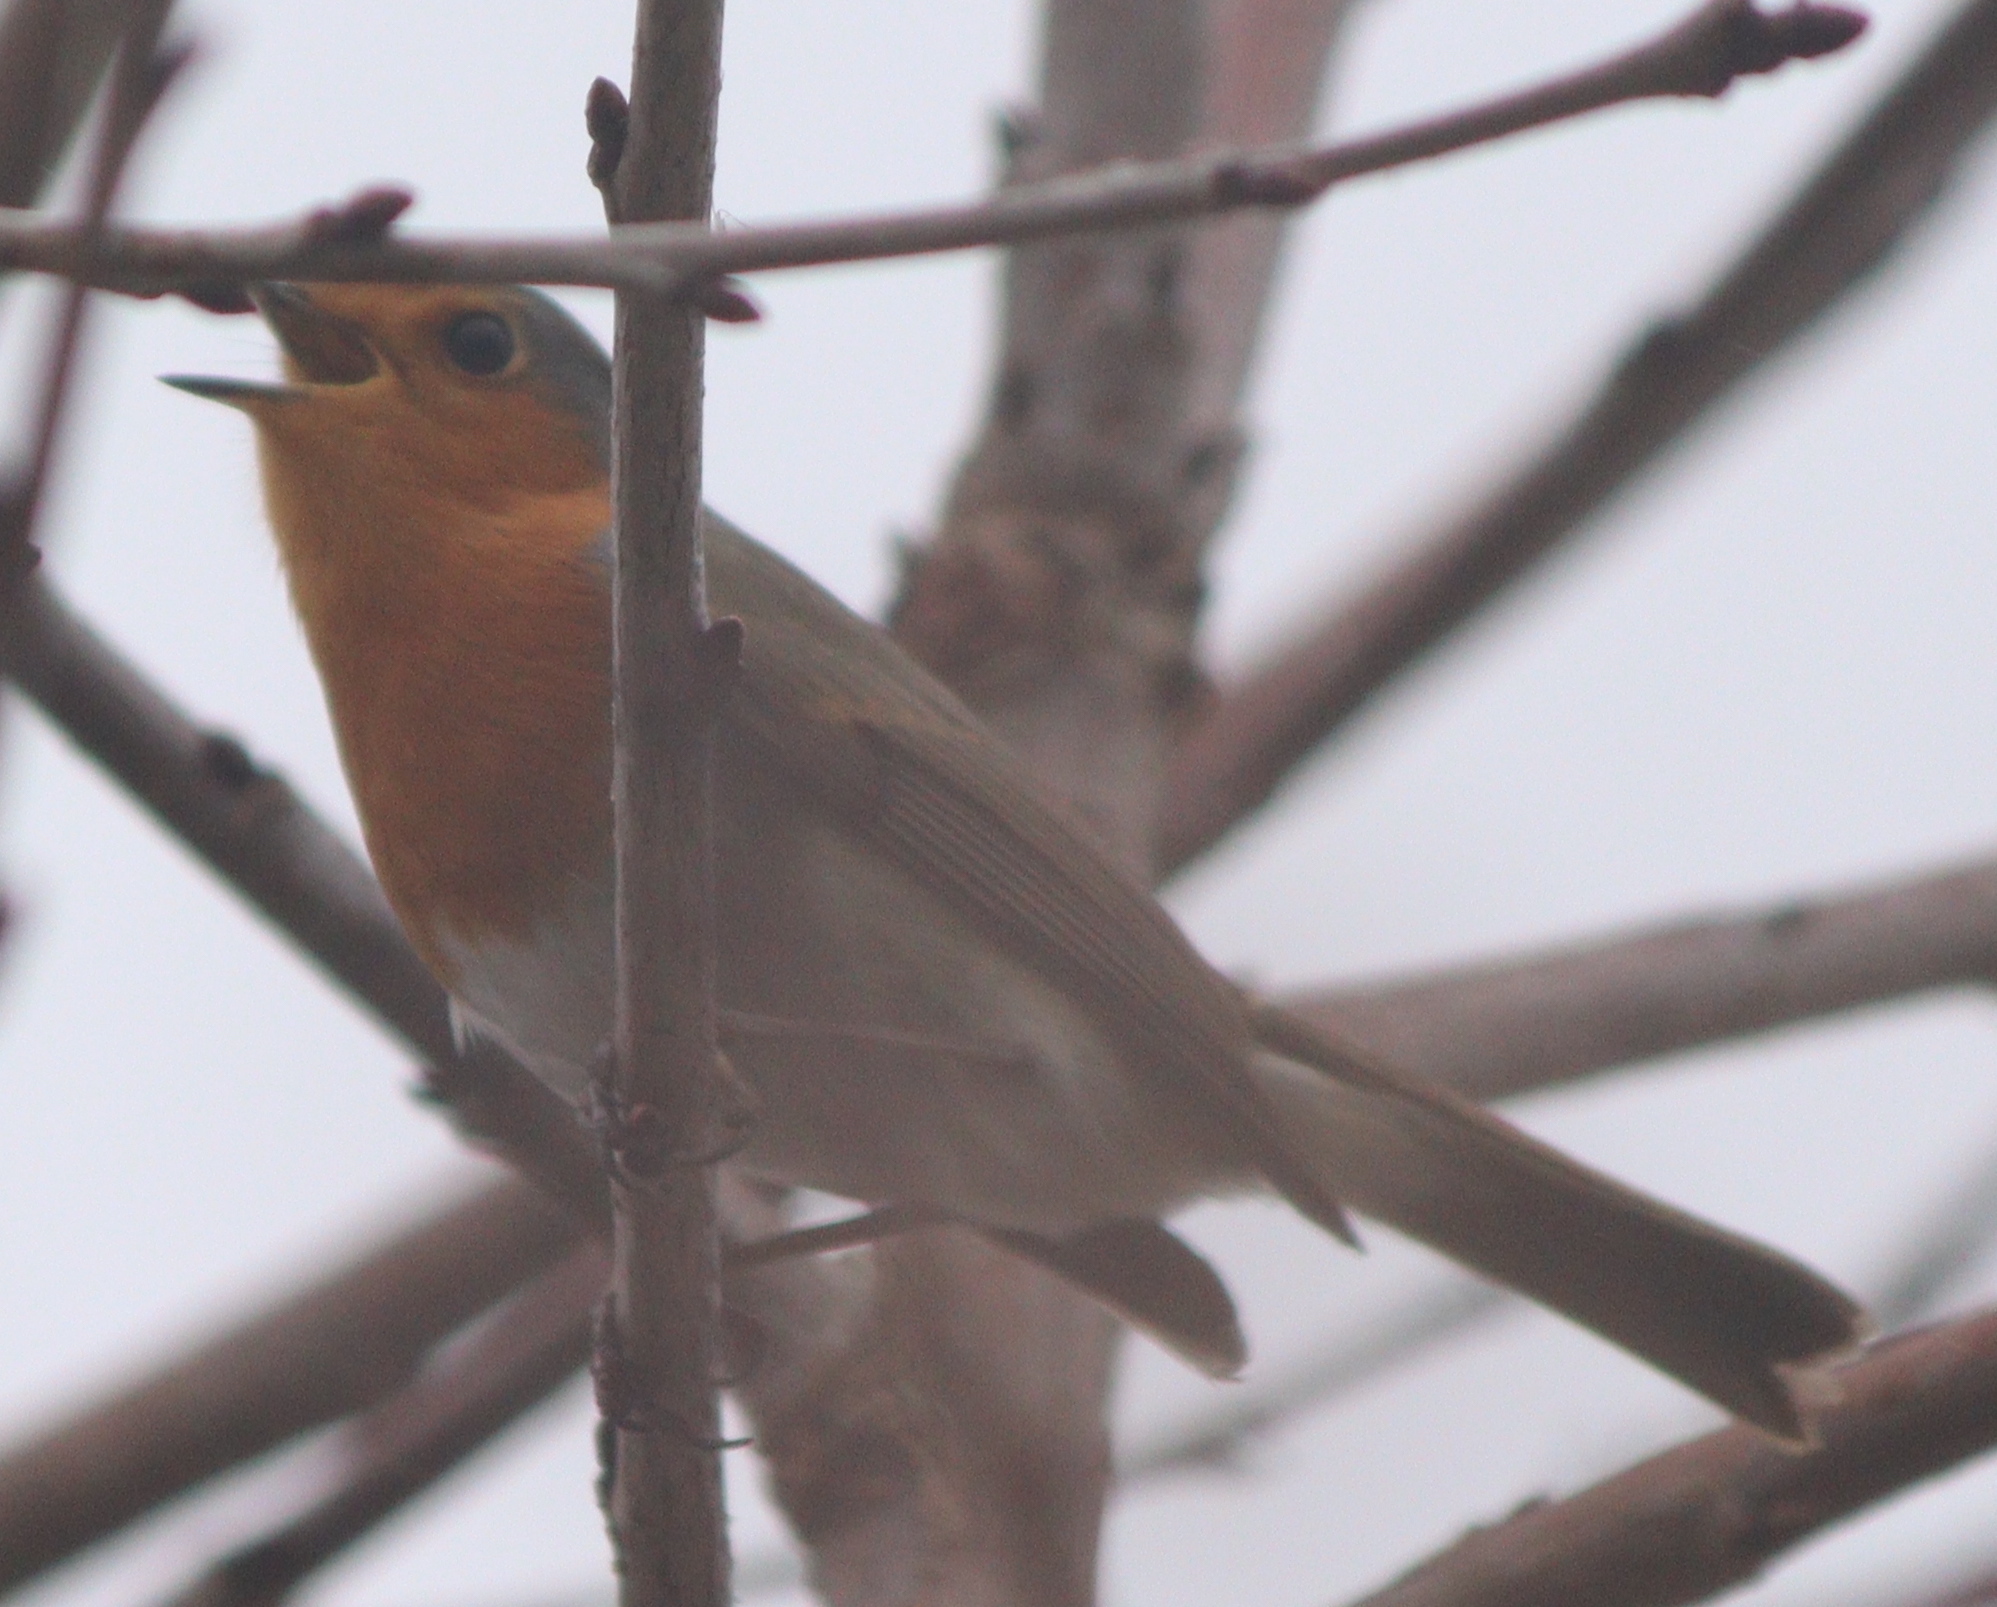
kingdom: Animalia
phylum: Chordata
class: Aves
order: Passeriformes
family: Muscicapidae
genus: Erithacus
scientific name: Erithacus rubecula
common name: European robin
